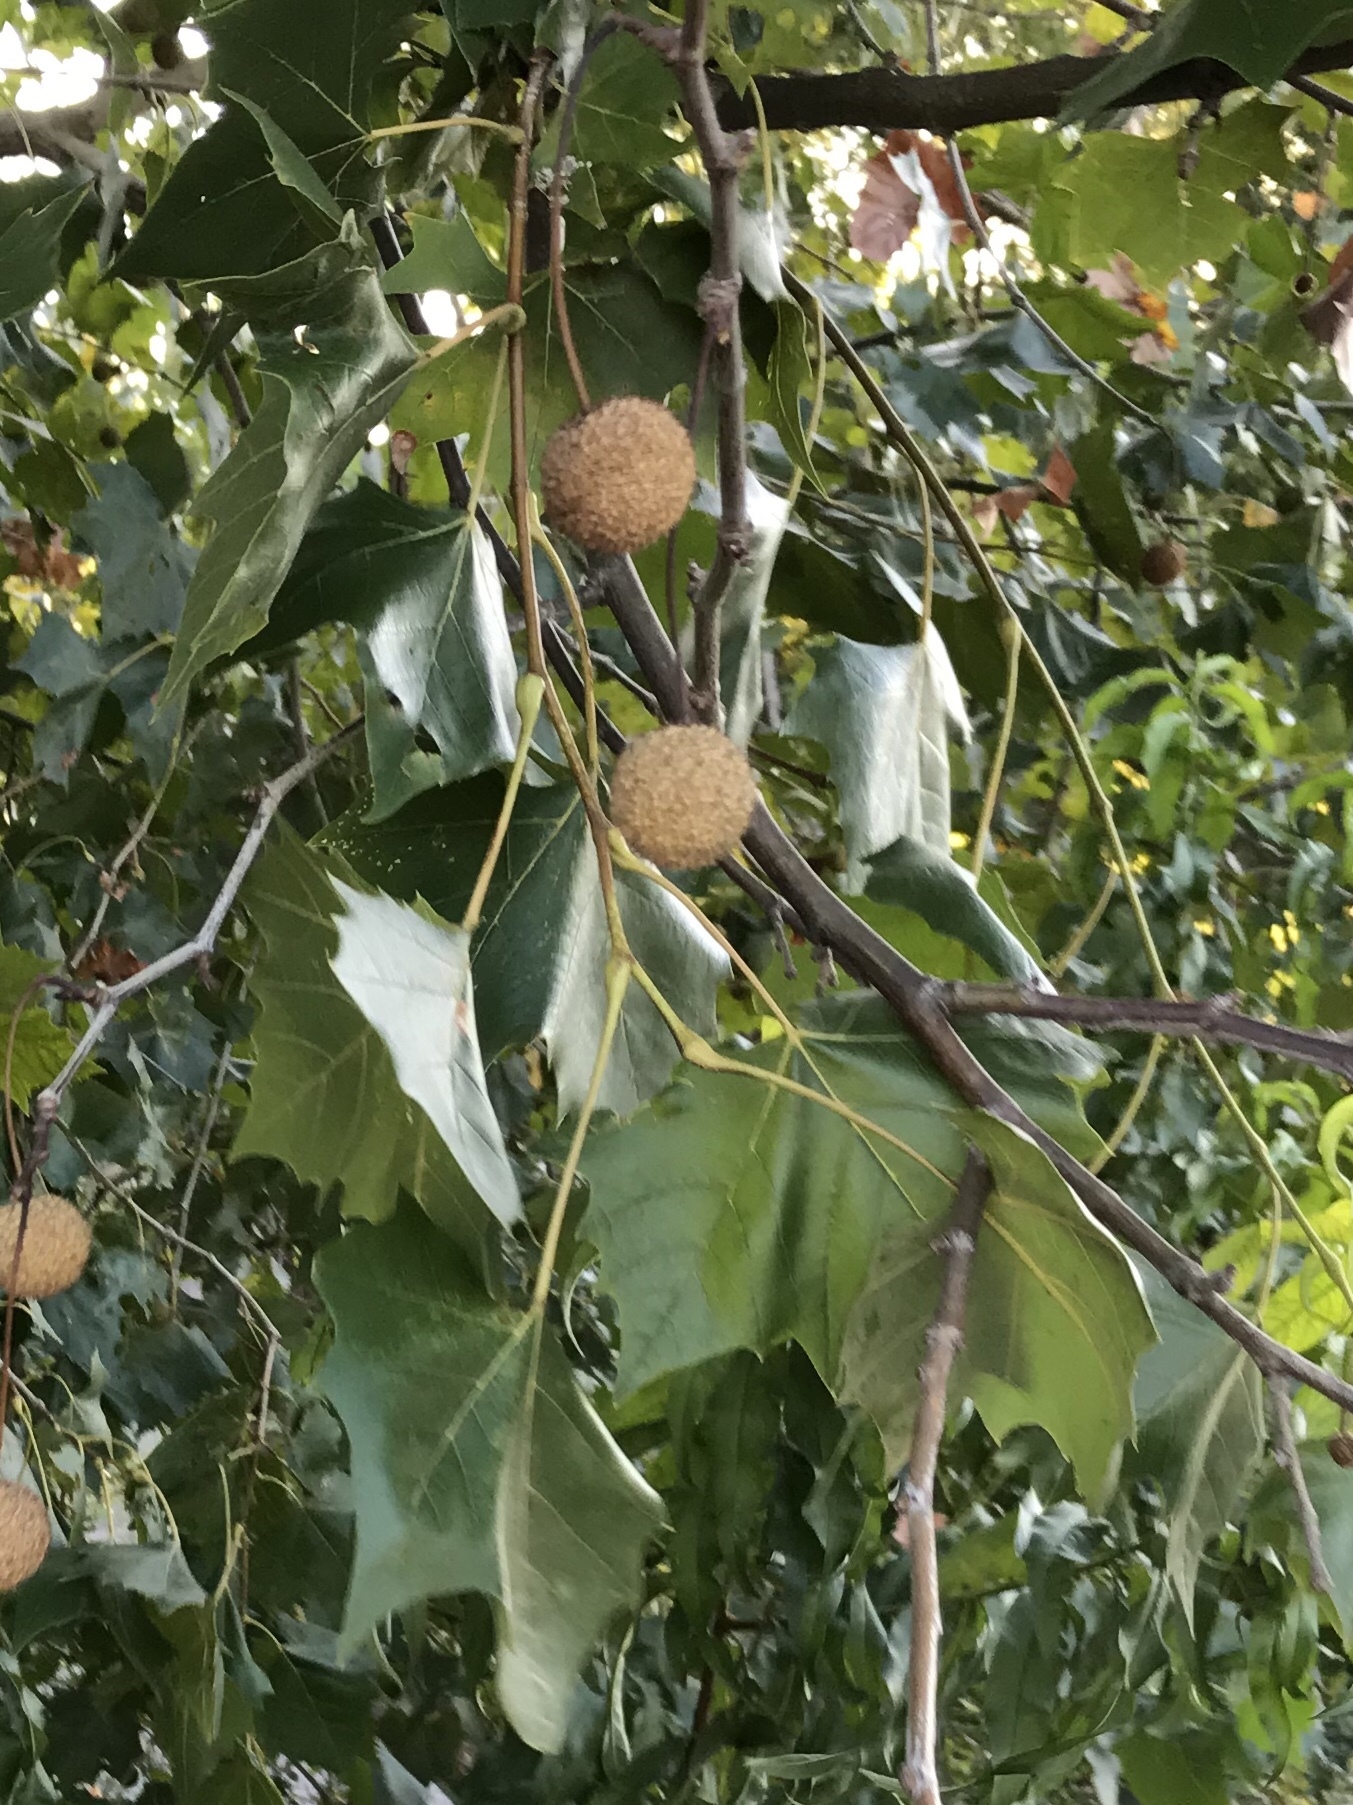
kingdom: Plantae
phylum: Tracheophyta
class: Magnoliopsida
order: Proteales
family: Platanaceae
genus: Platanus
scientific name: Platanus occidentalis
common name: American sycamore
